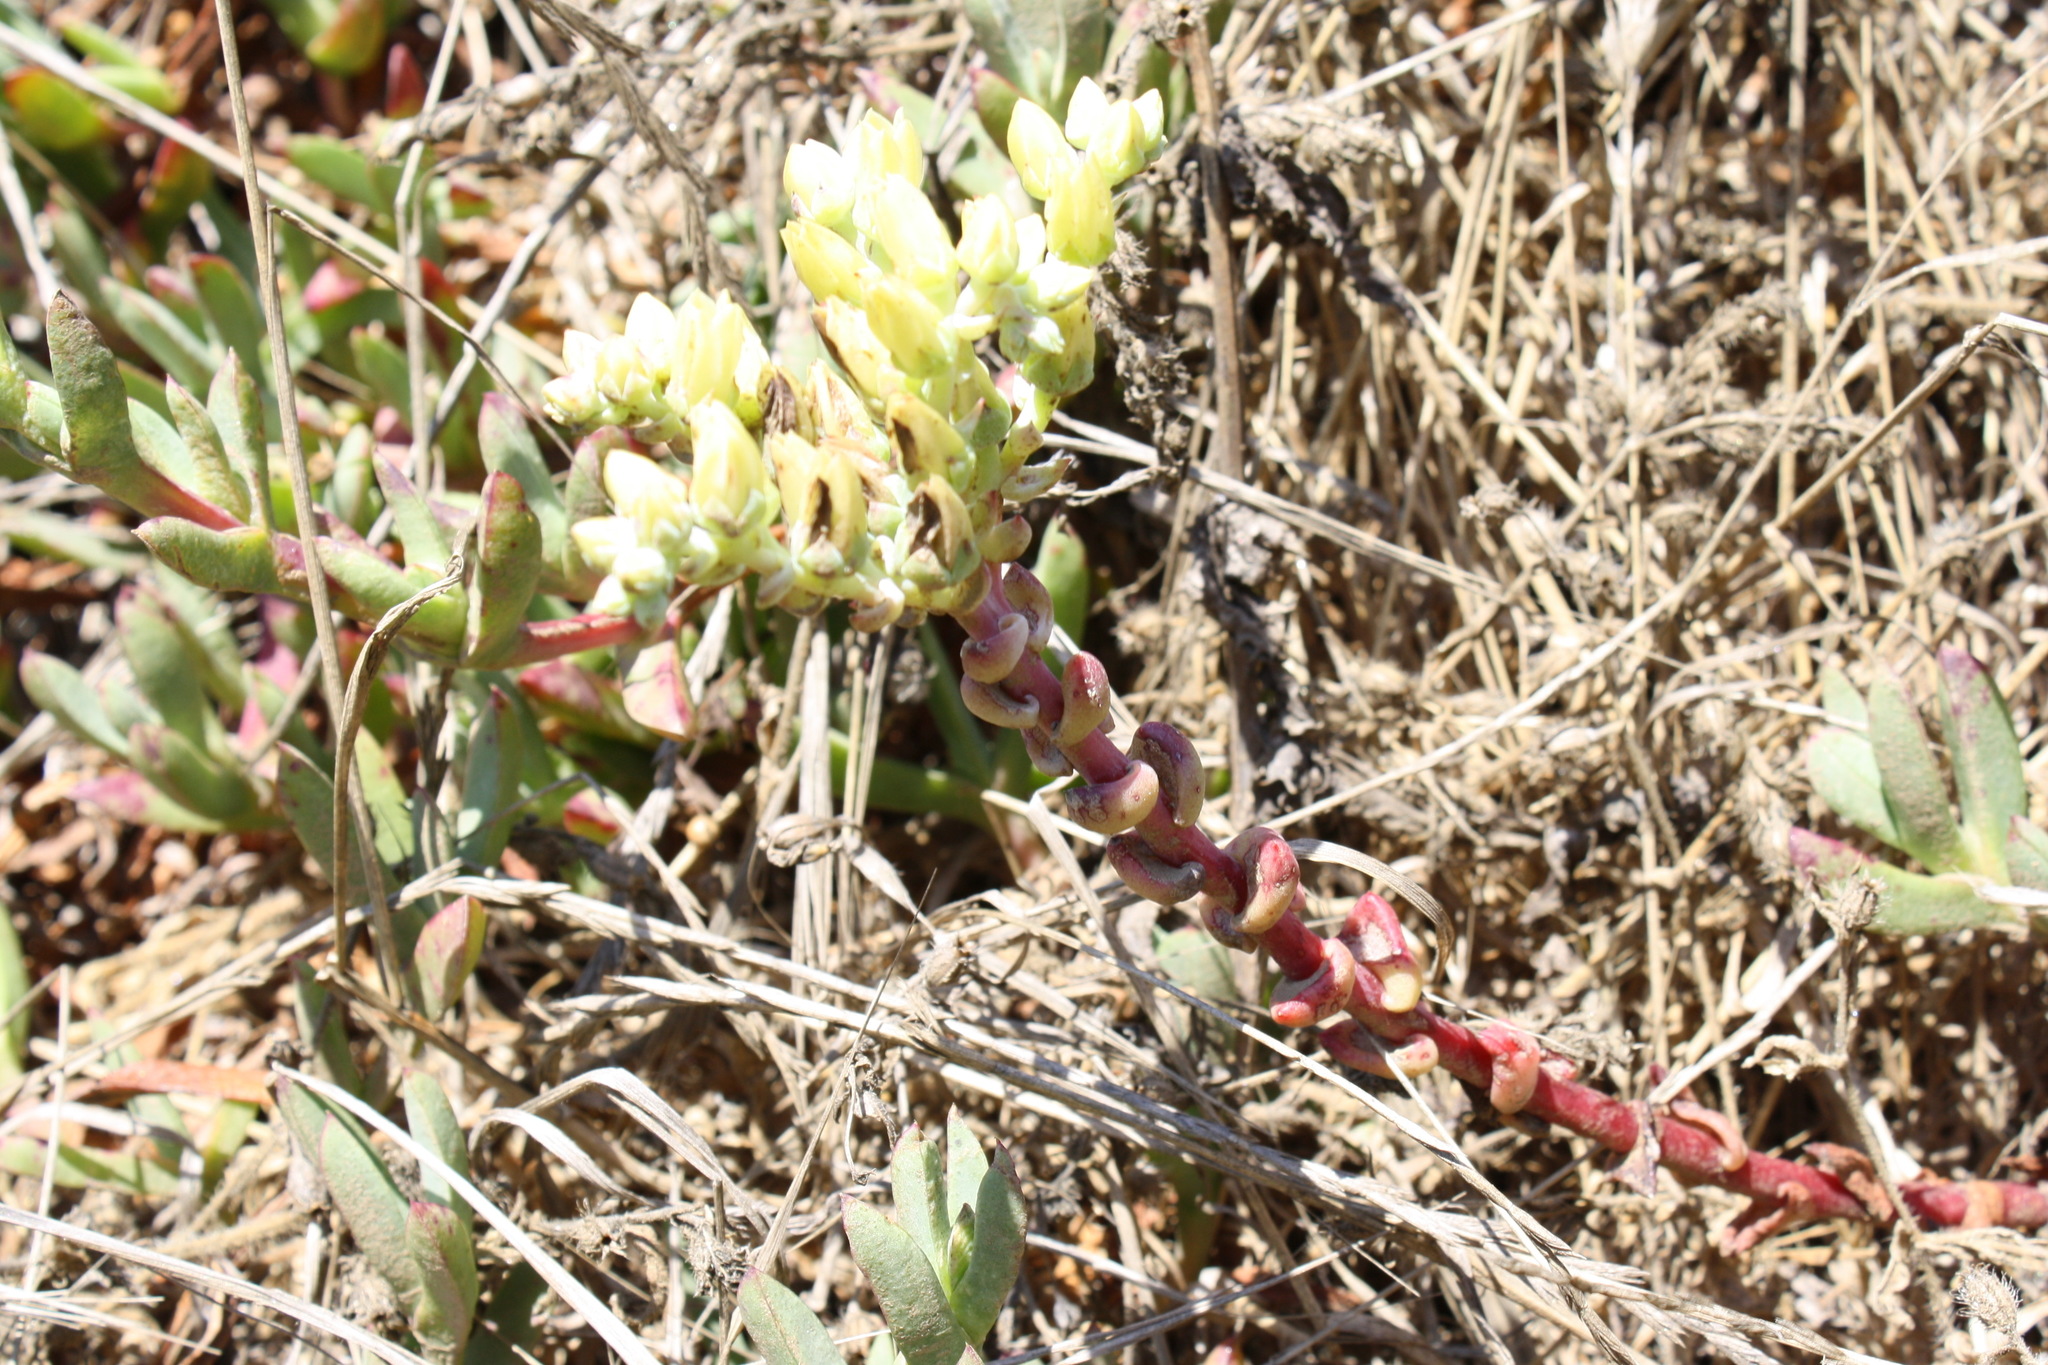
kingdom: Plantae
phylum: Tracheophyta
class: Magnoliopsida
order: Saxifragales
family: Crassulaceae
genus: Dudleya
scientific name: Dudleya farinosa
